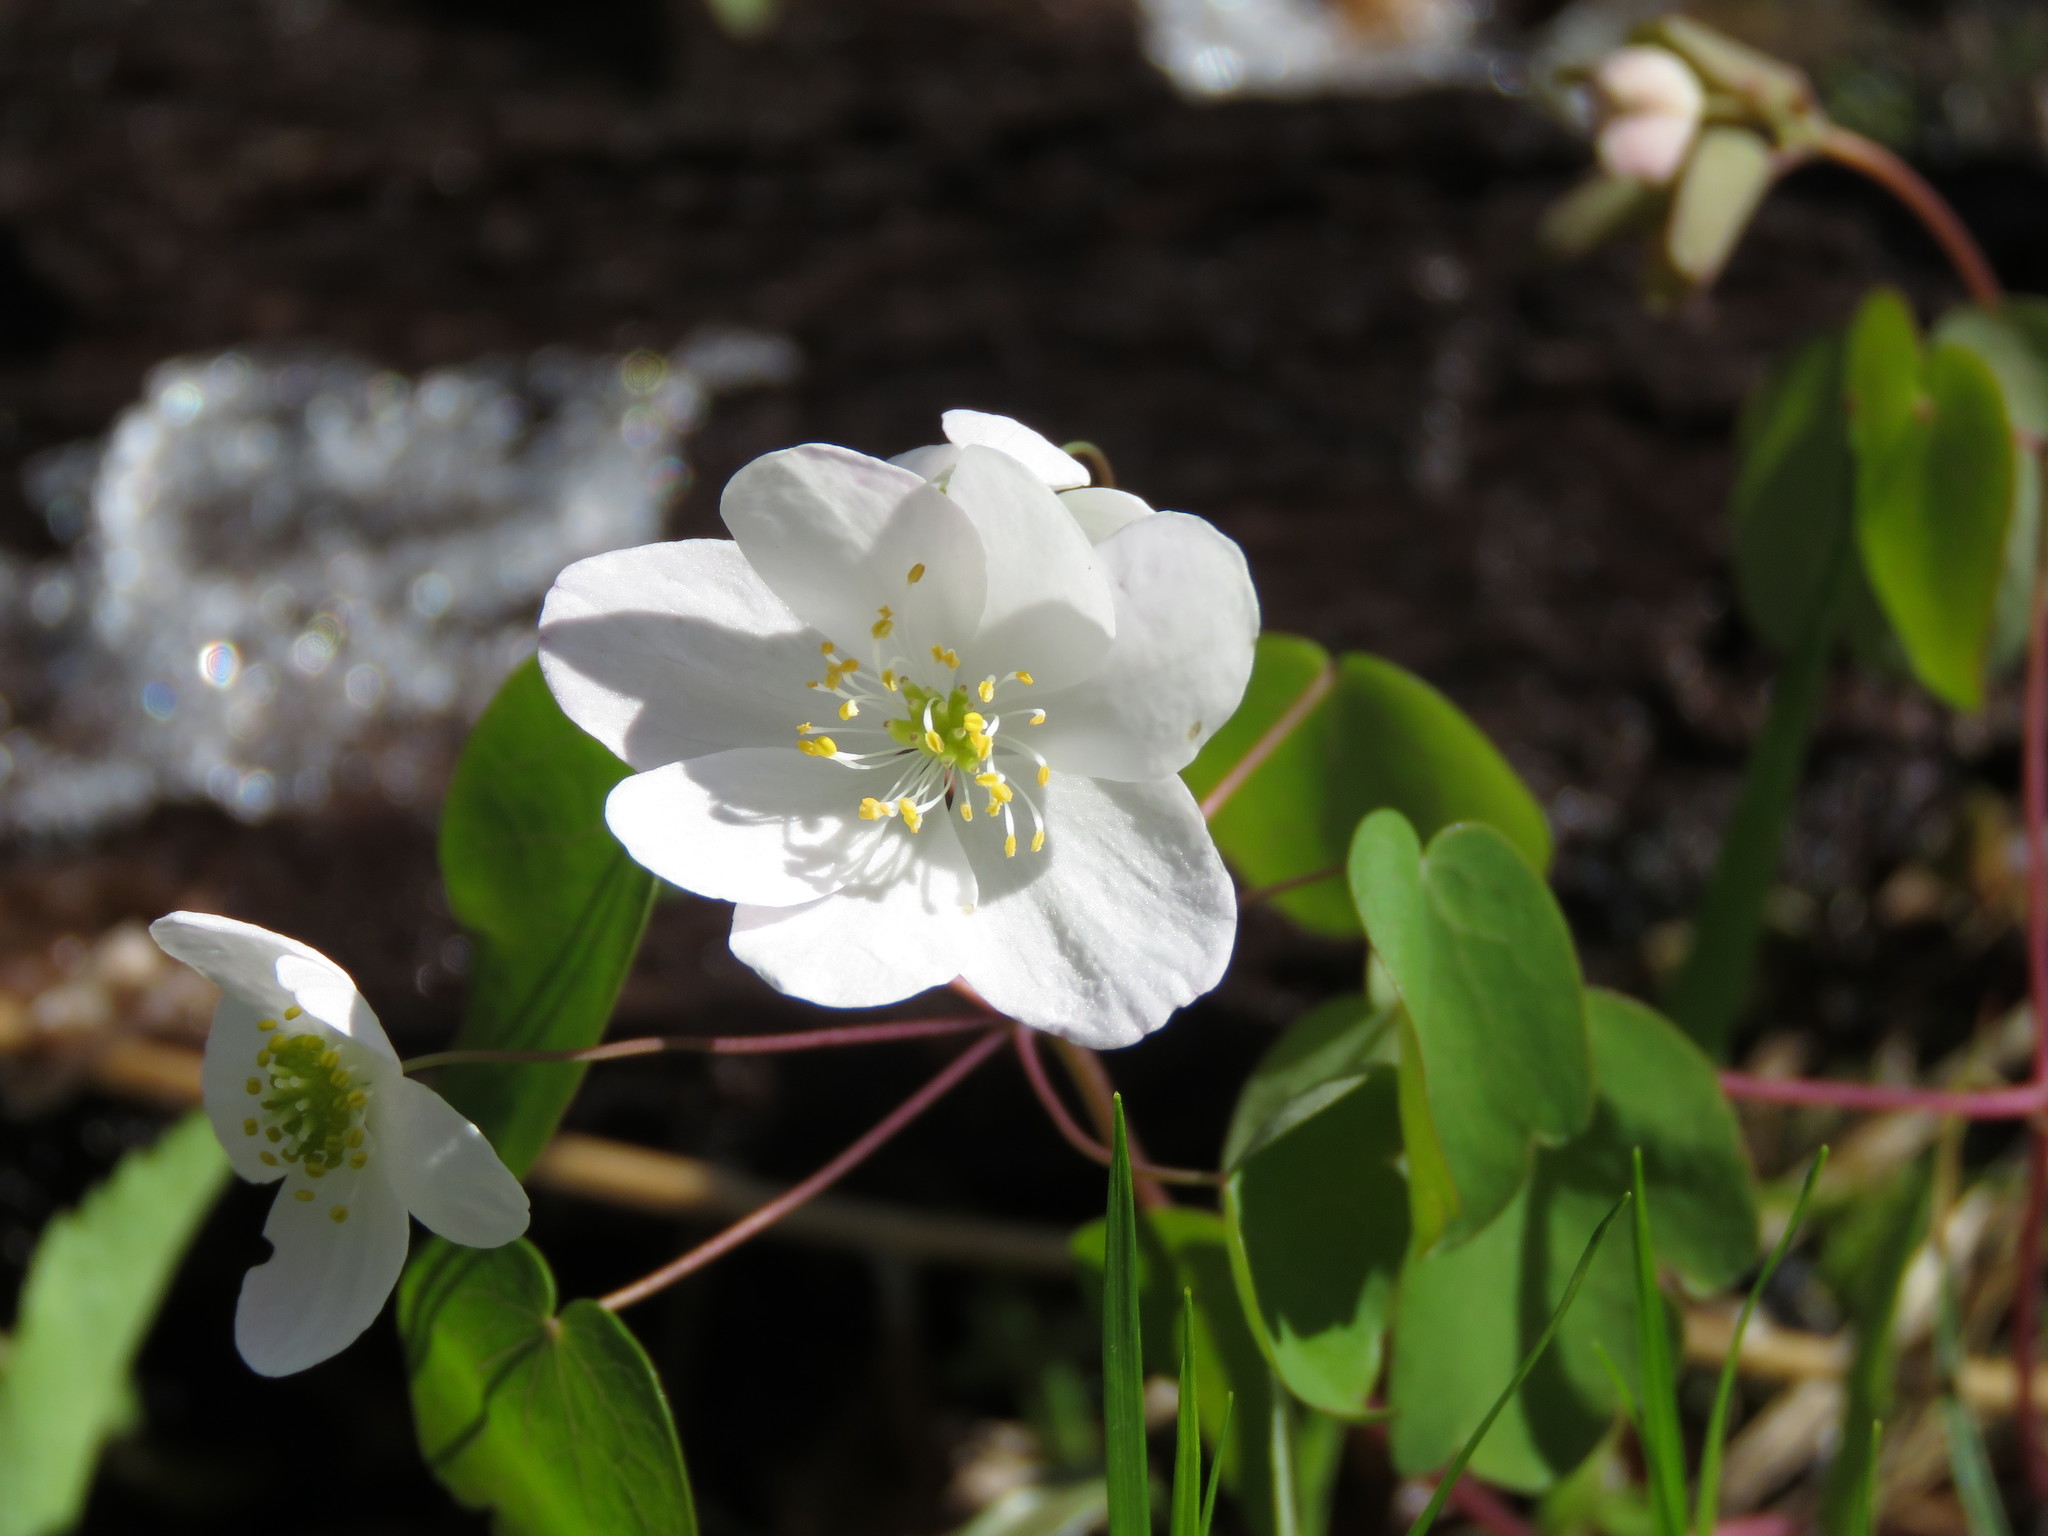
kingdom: Plantae
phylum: Tracheophyta
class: Magnoliopsida
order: Ranunculales
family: Ranunculaceae
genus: Thalictrum
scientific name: Thalictrum thalictroides
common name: Rue-anemone
